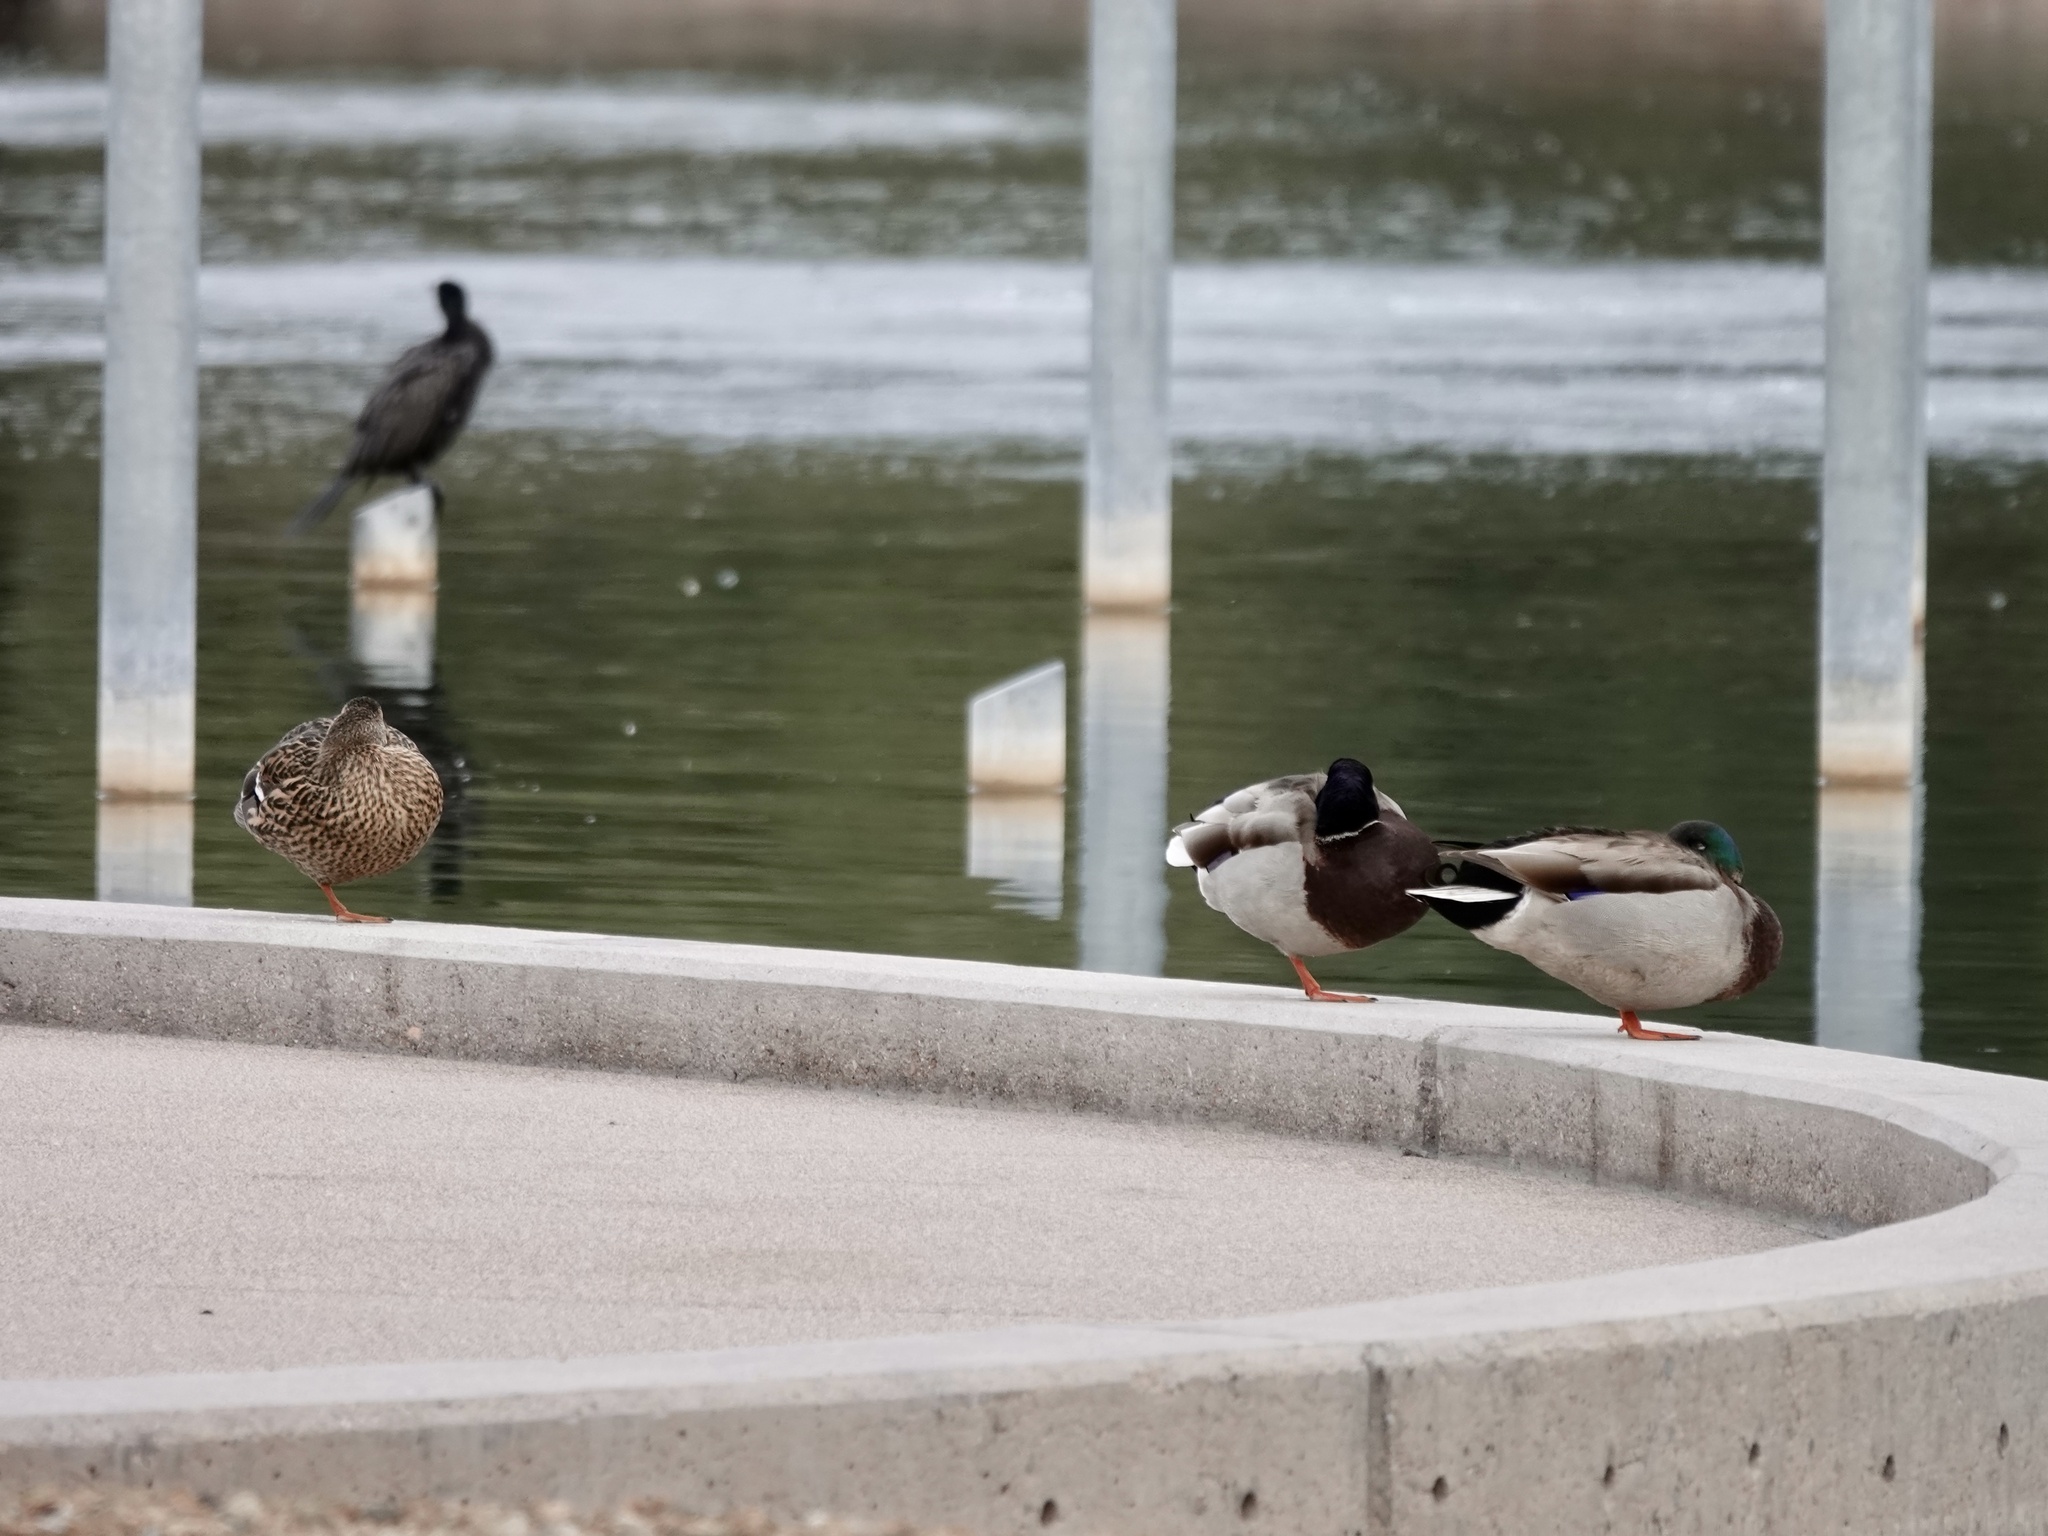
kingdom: Animalia
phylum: Chordata
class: Aves
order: Anseriformes
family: Anatidae
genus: Anas
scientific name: Anas platyrhynchos
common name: Mallard
